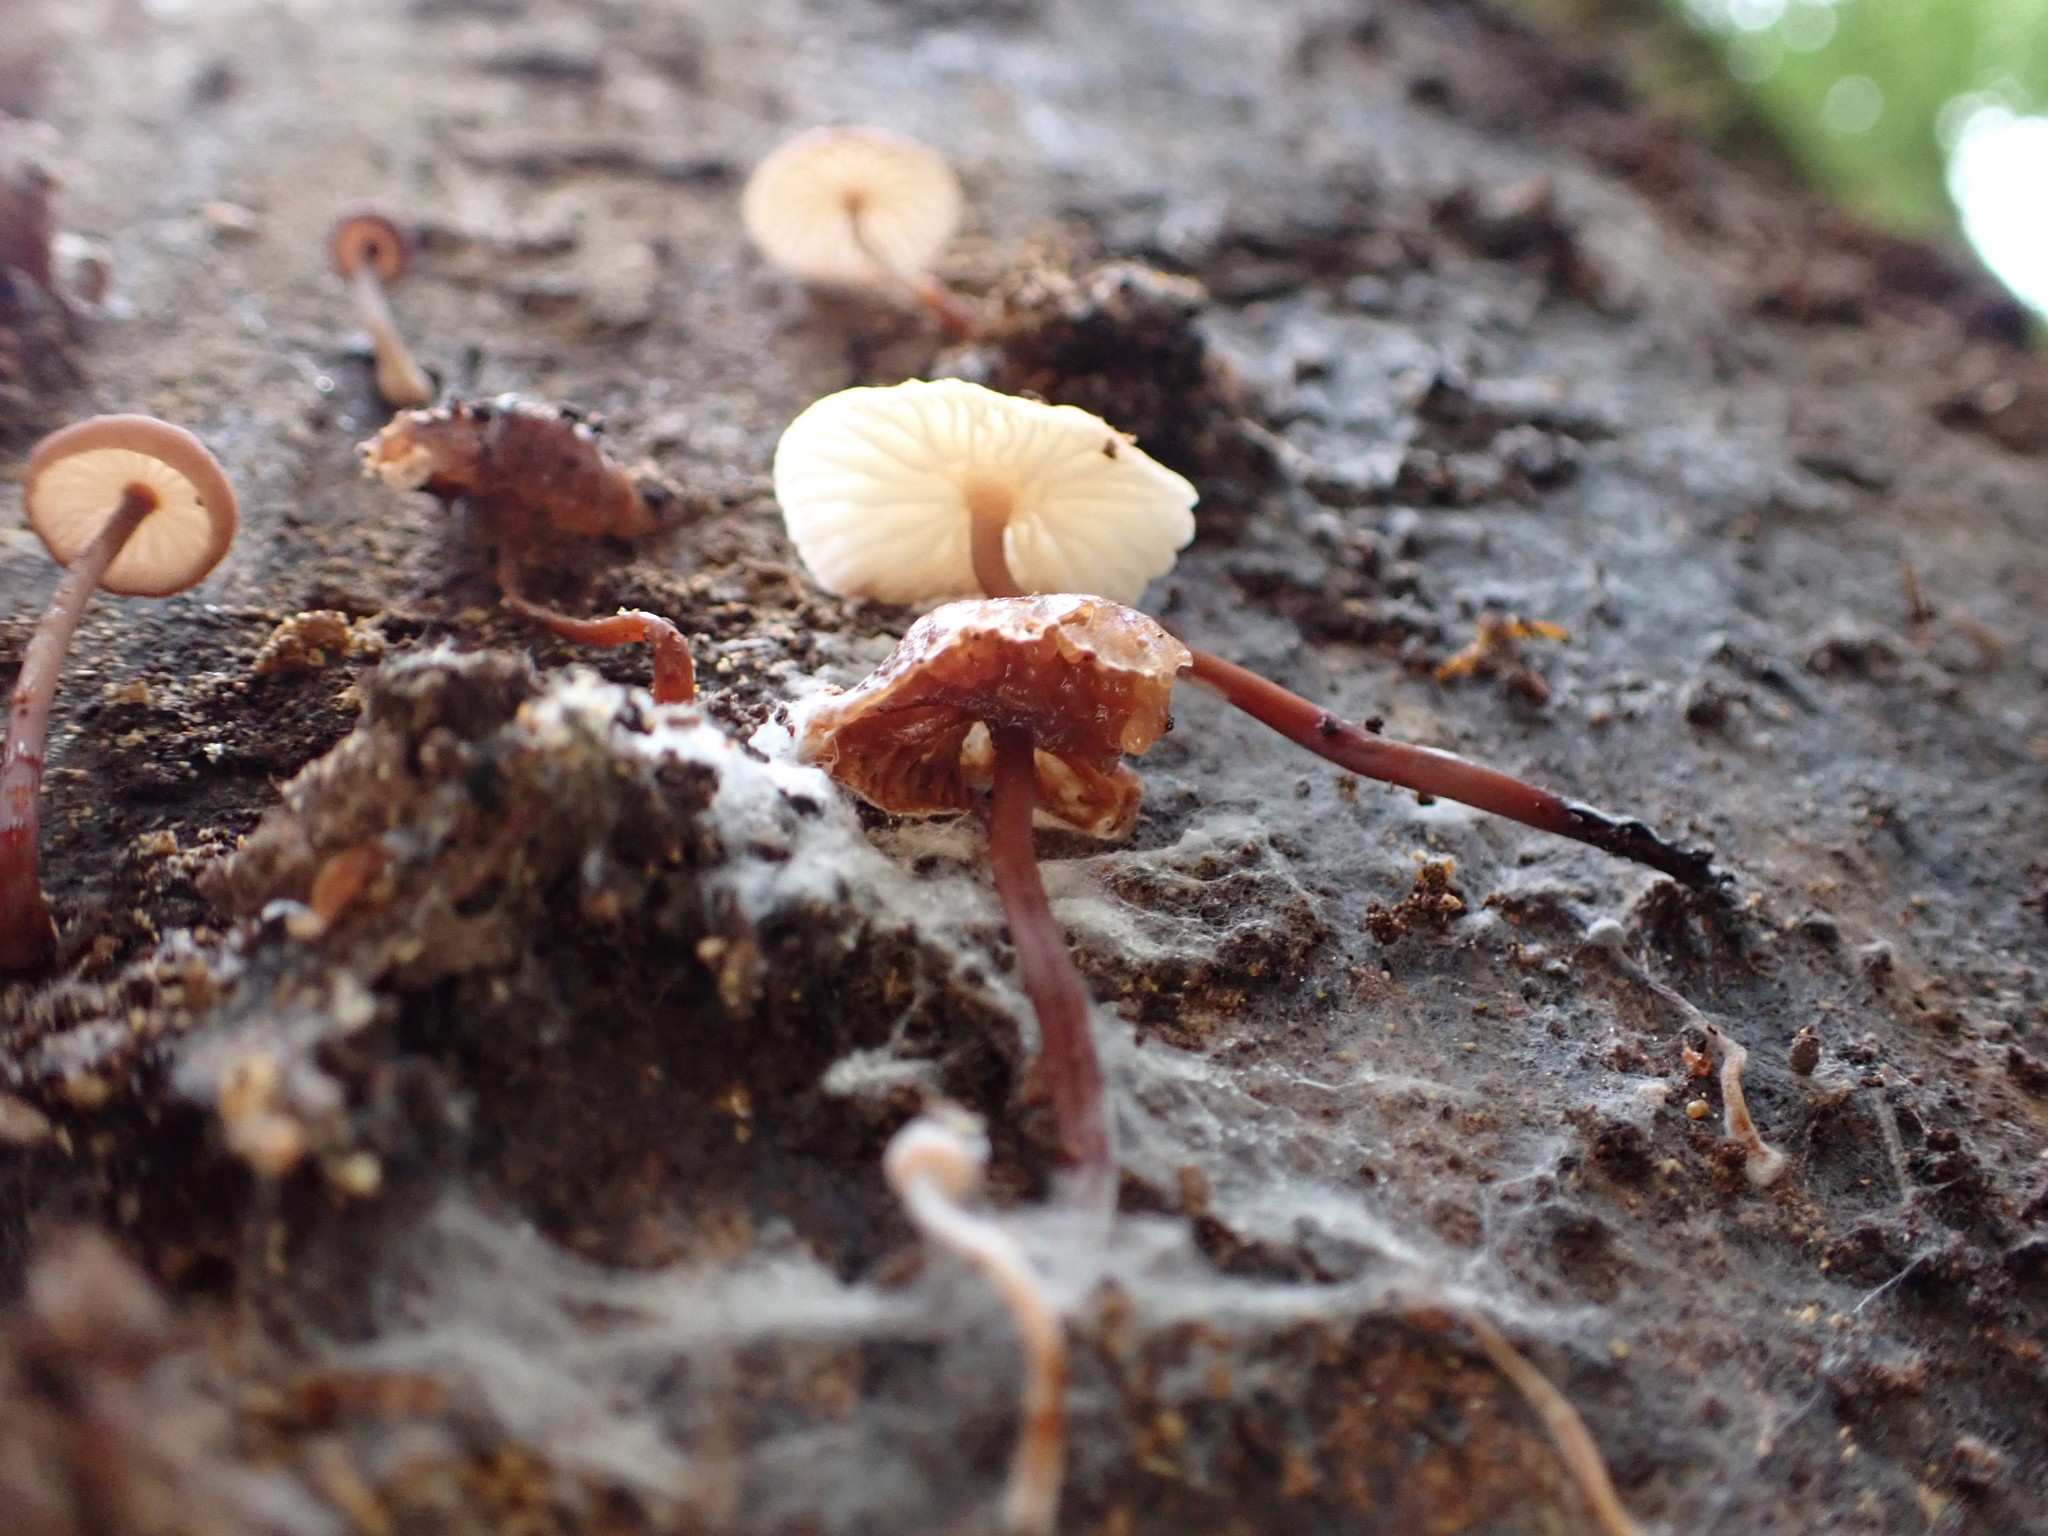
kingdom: Fungi
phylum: Basidiomycota
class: Agaricomycetes
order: Agaricales
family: Mycenaceae
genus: Mycena
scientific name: Mycena mariae
